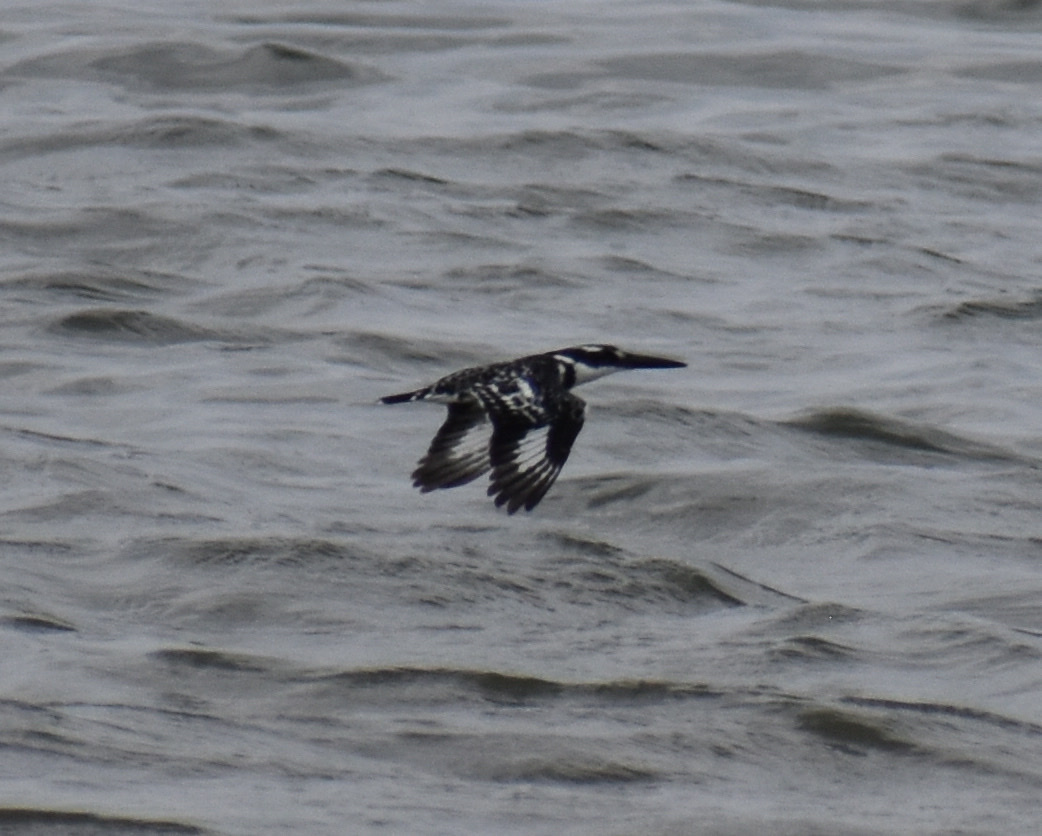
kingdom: Animalia
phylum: Chordata
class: Aves
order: Coraciiformes
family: Alcedinidae
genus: Ceryle
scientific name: Ceryle rudis
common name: Pied kingfisher
